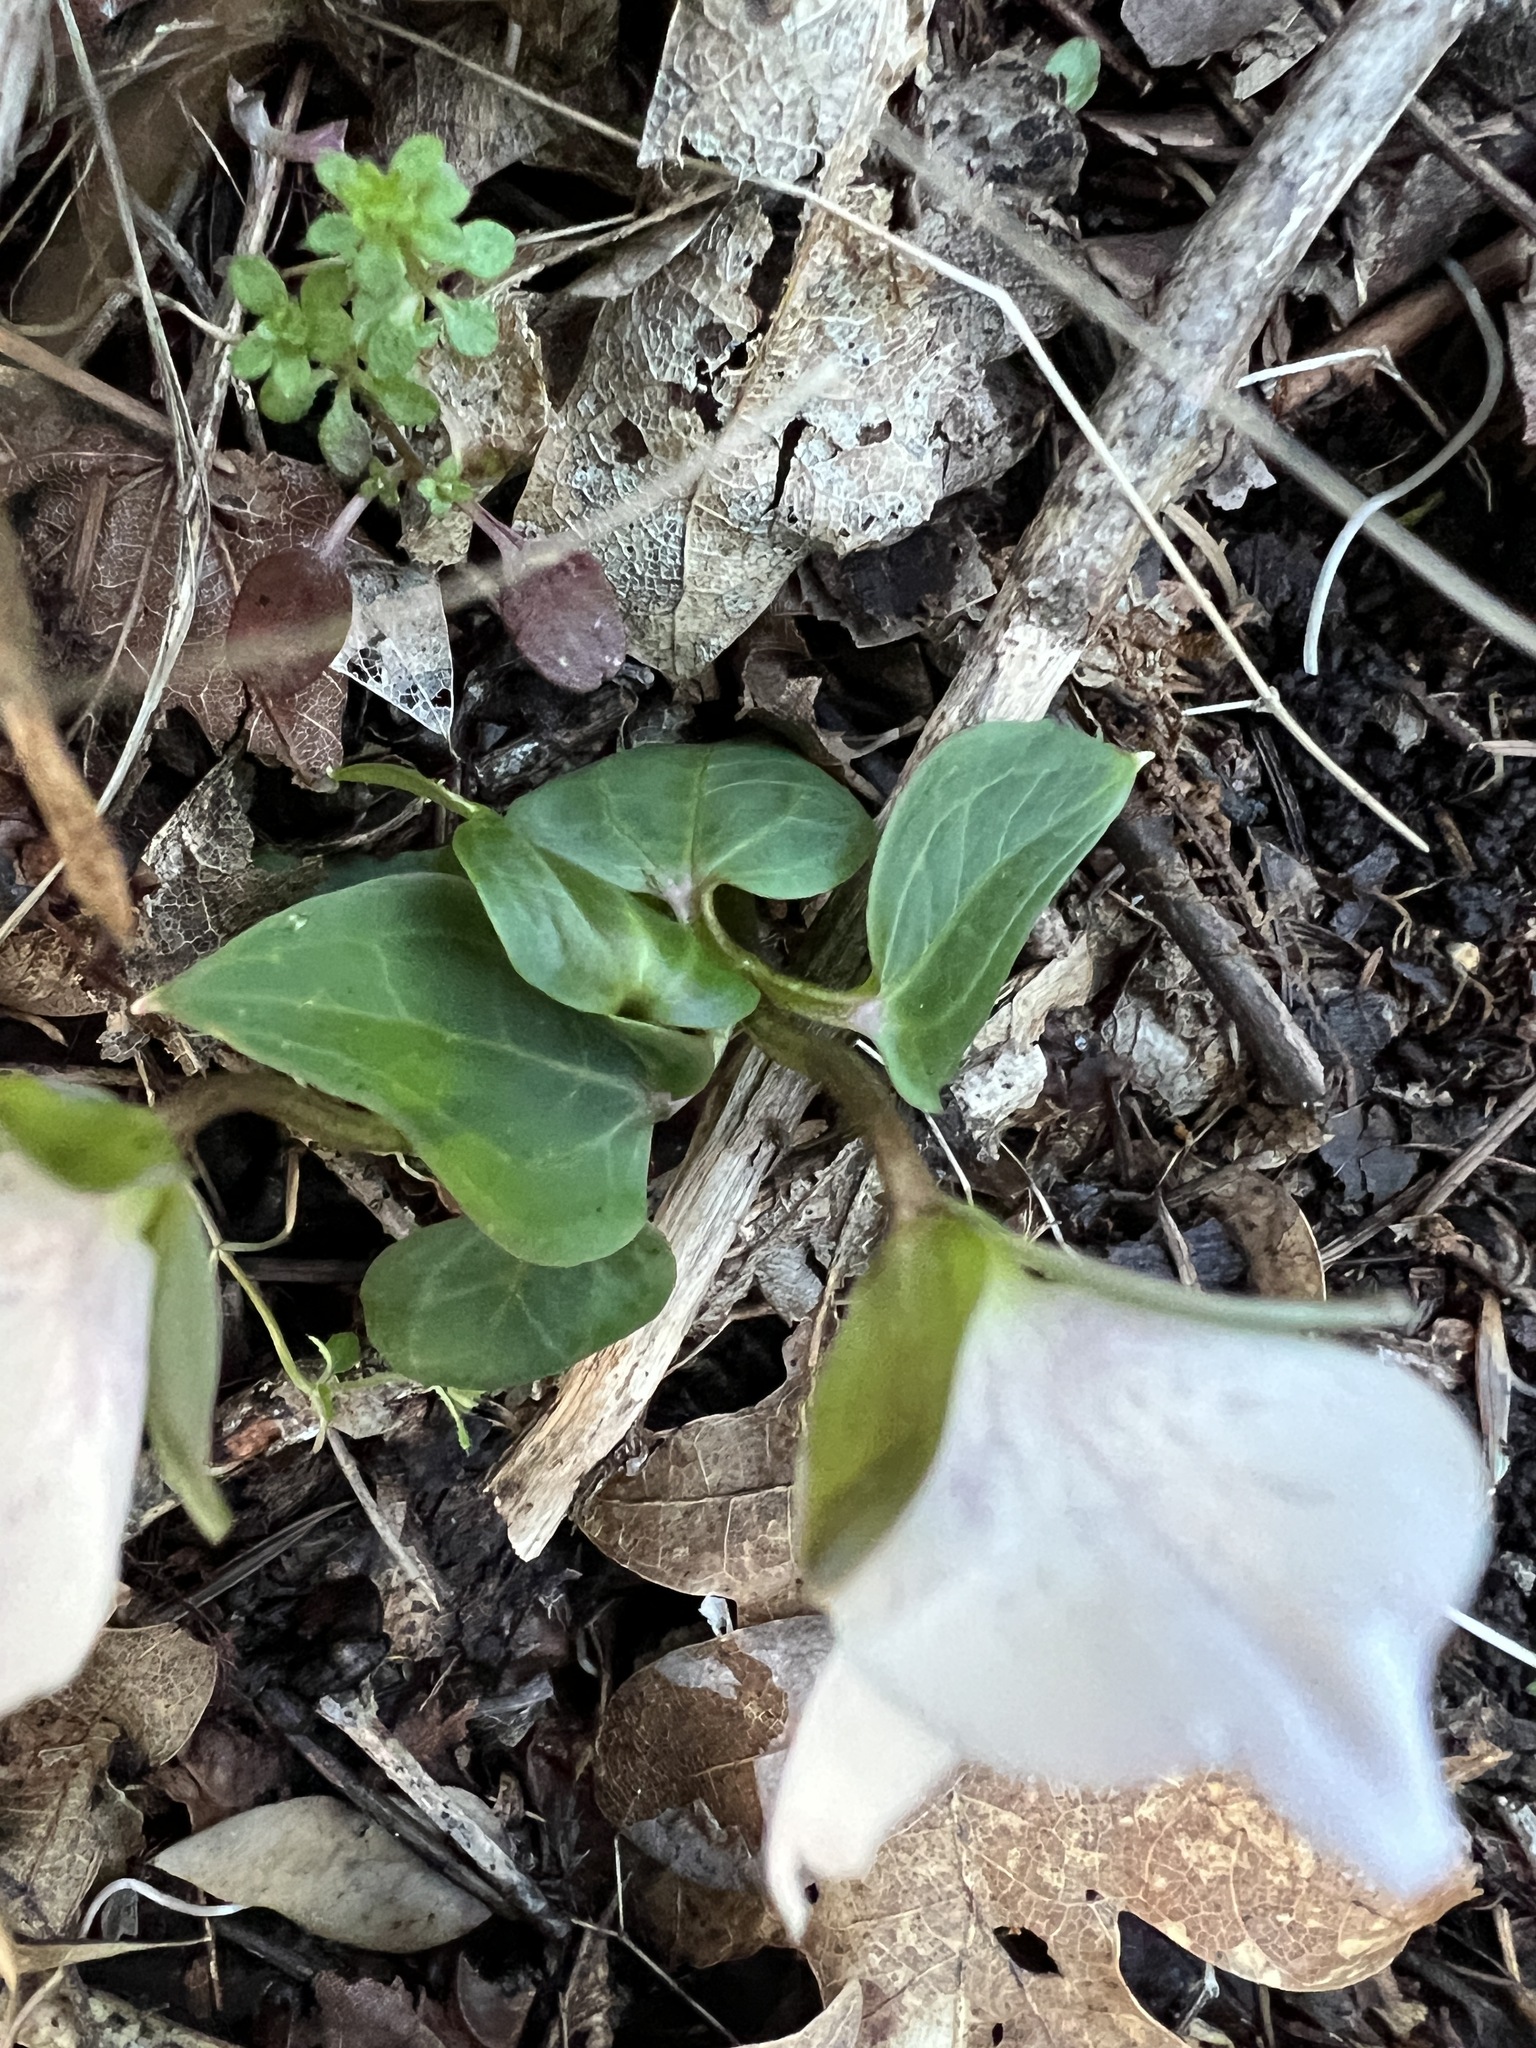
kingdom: Plantae
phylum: Tracheophyta
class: Liliopsida
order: Liliales
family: Melanthiaceae
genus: Pseudotrillium
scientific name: Pseudotrillium rivale
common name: Brook wakerobin
